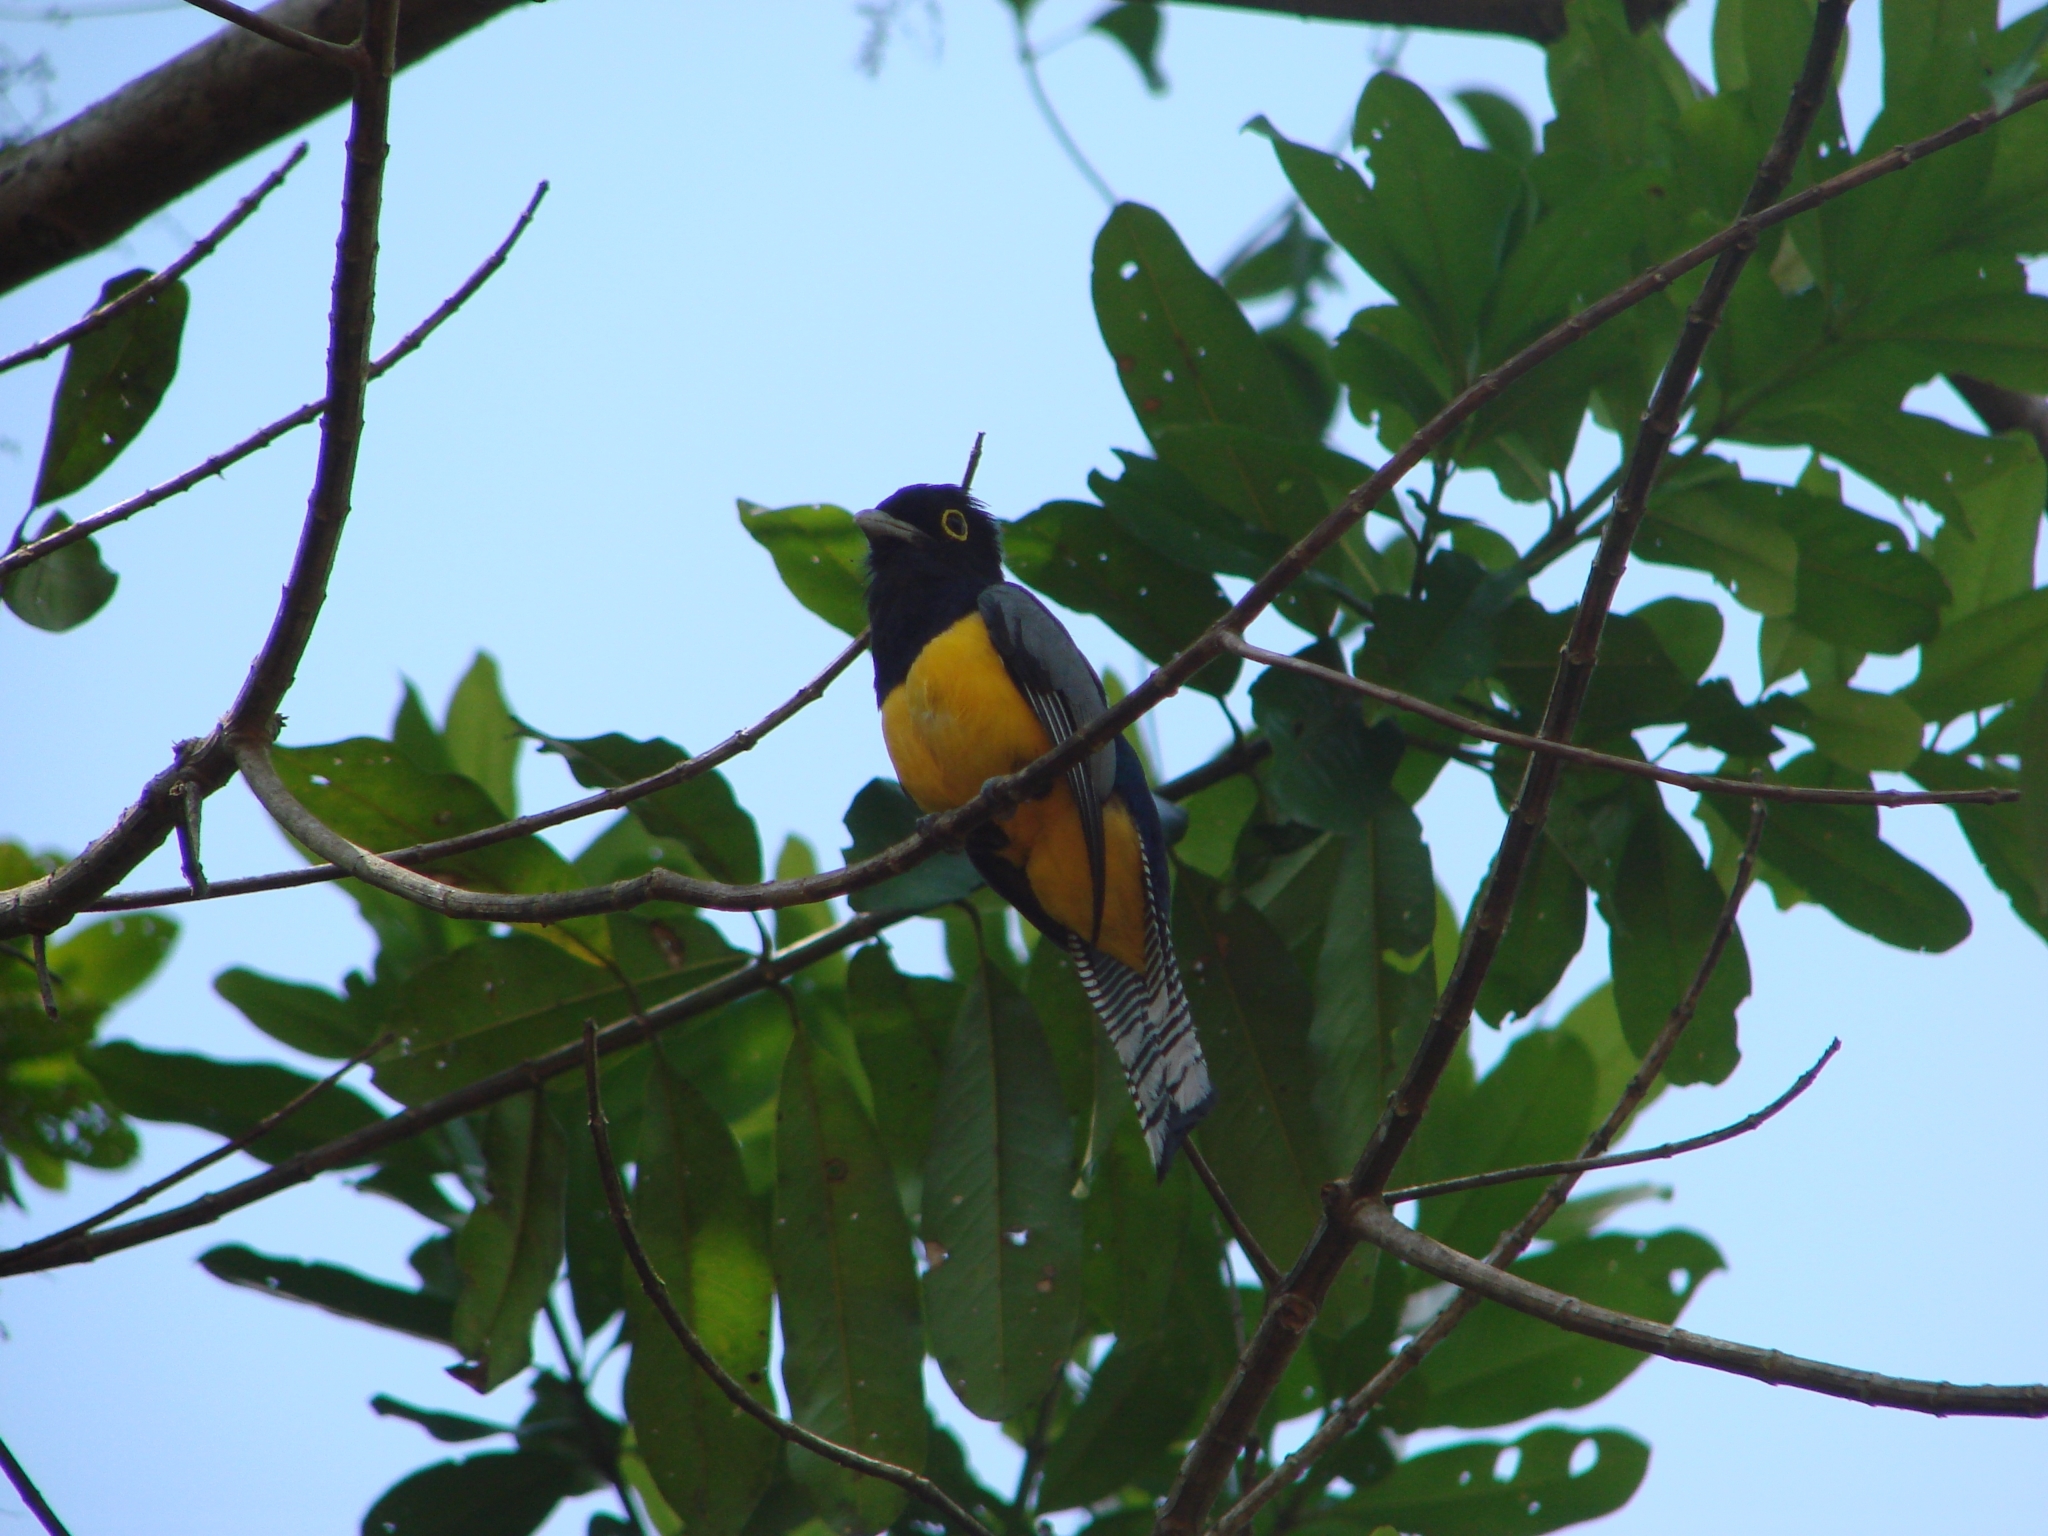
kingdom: Animalia
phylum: Chordata
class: Aves
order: Trogoniformes
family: Trogonidae
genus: Trogon
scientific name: Trogon caligatus
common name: Gartered trogon
